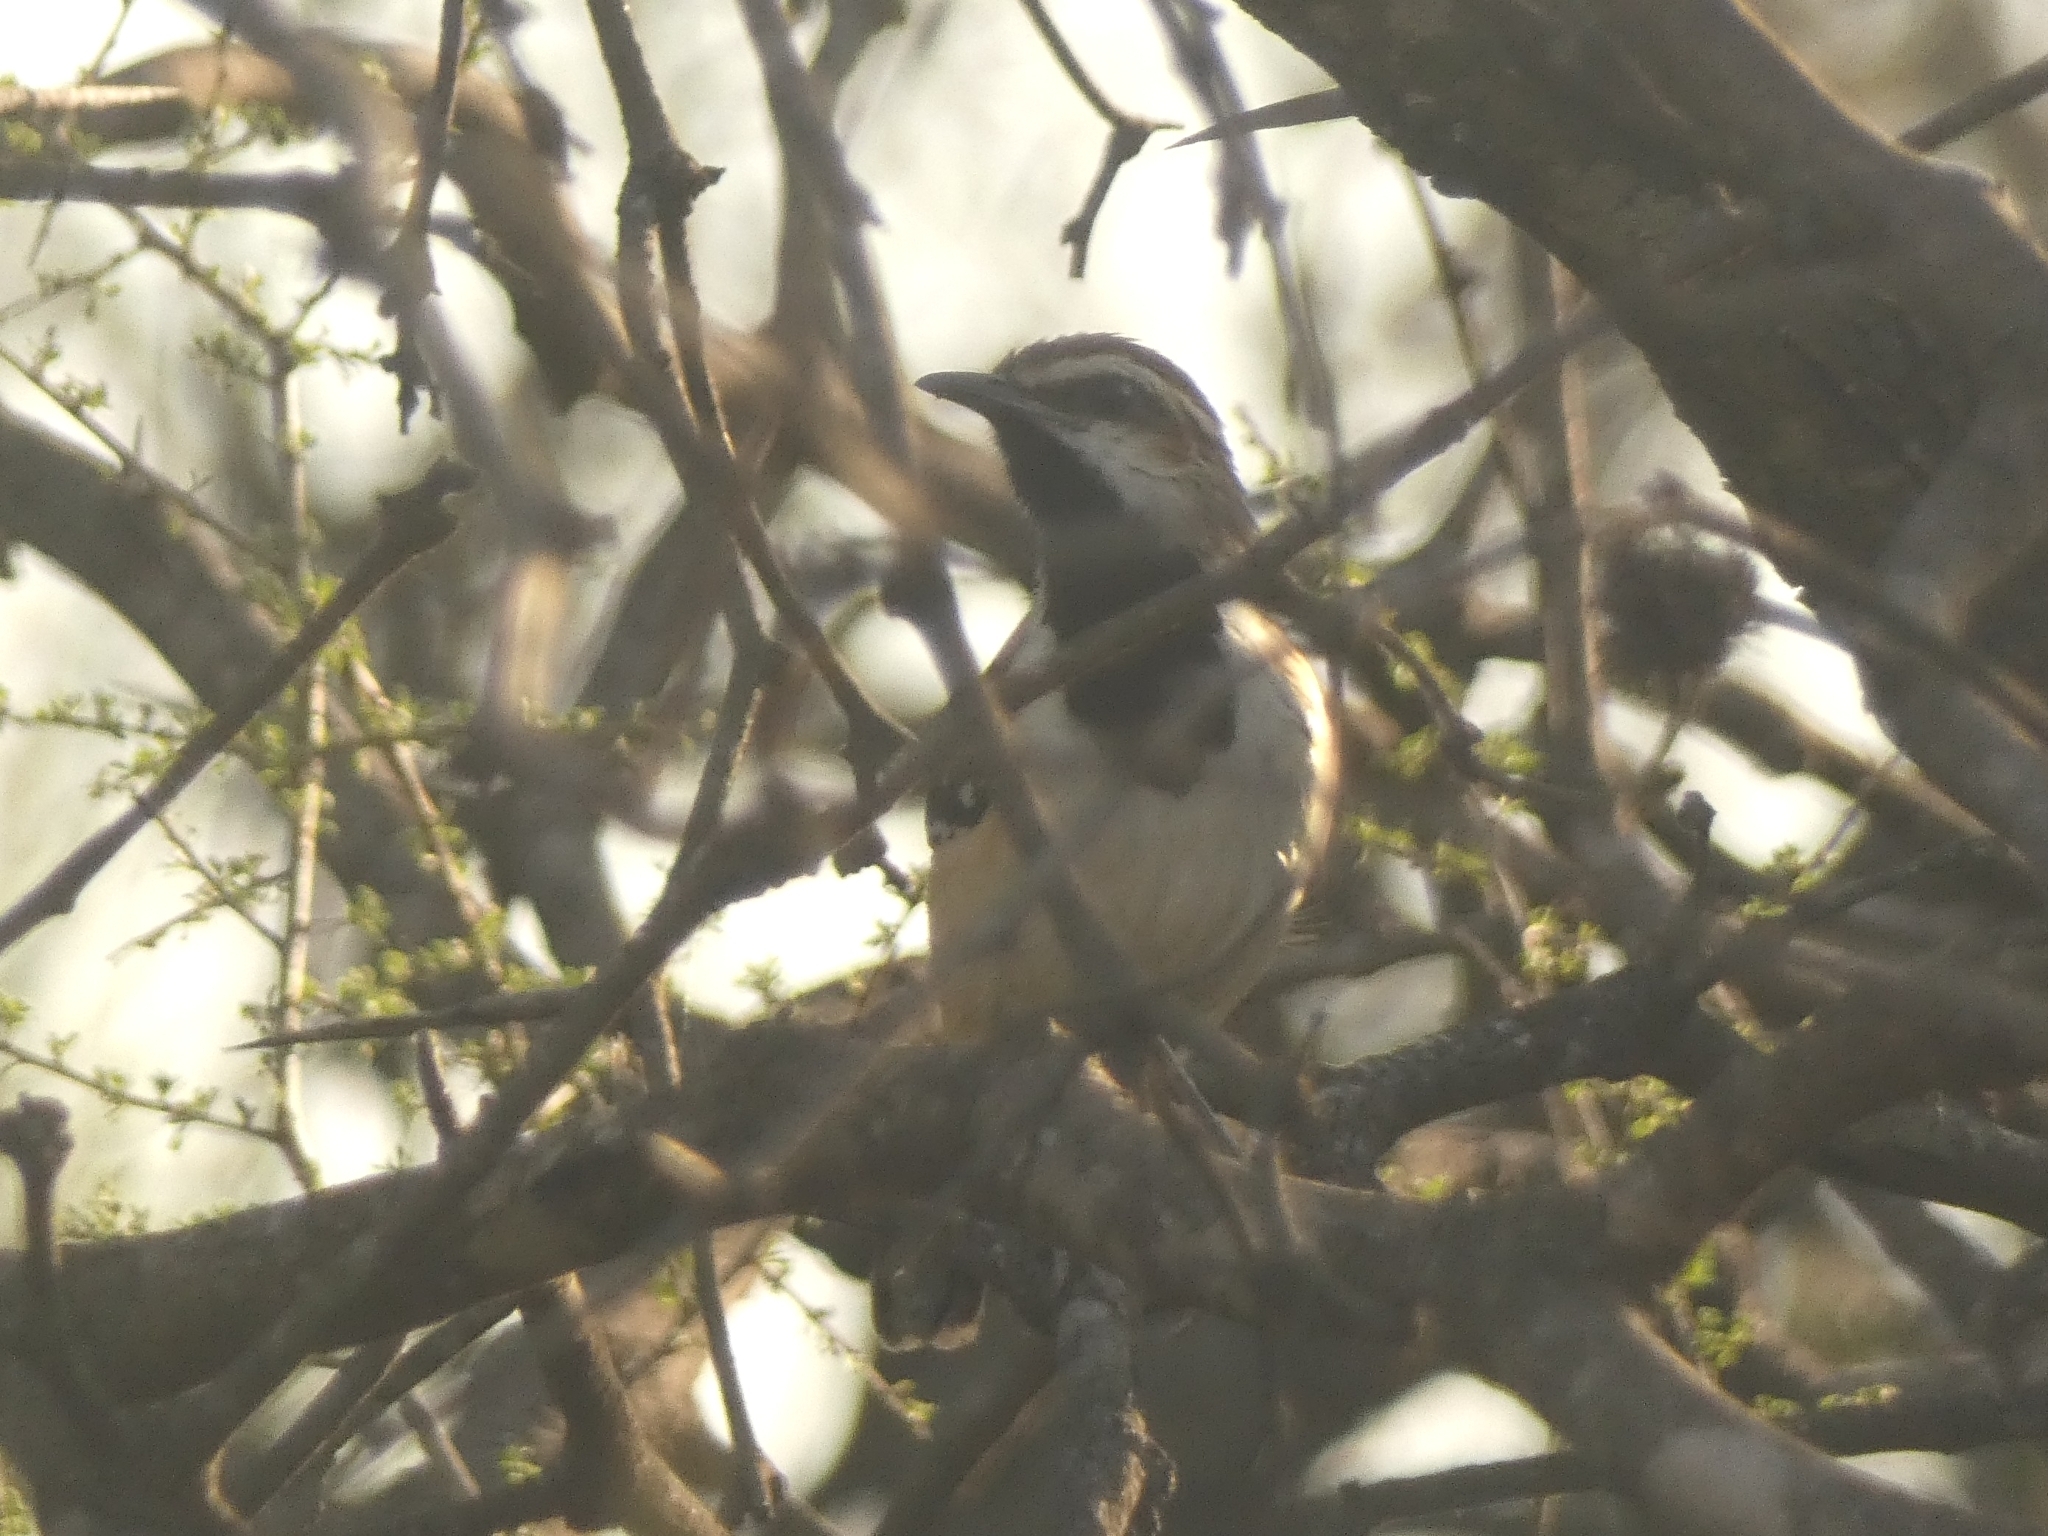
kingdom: Animalia
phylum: Chordata
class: Aves
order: Passeriformes
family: Thamnophilidae
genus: Myrmorchilus
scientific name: Myrmorchilus strigilatus
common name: Stripe-backed antbird
